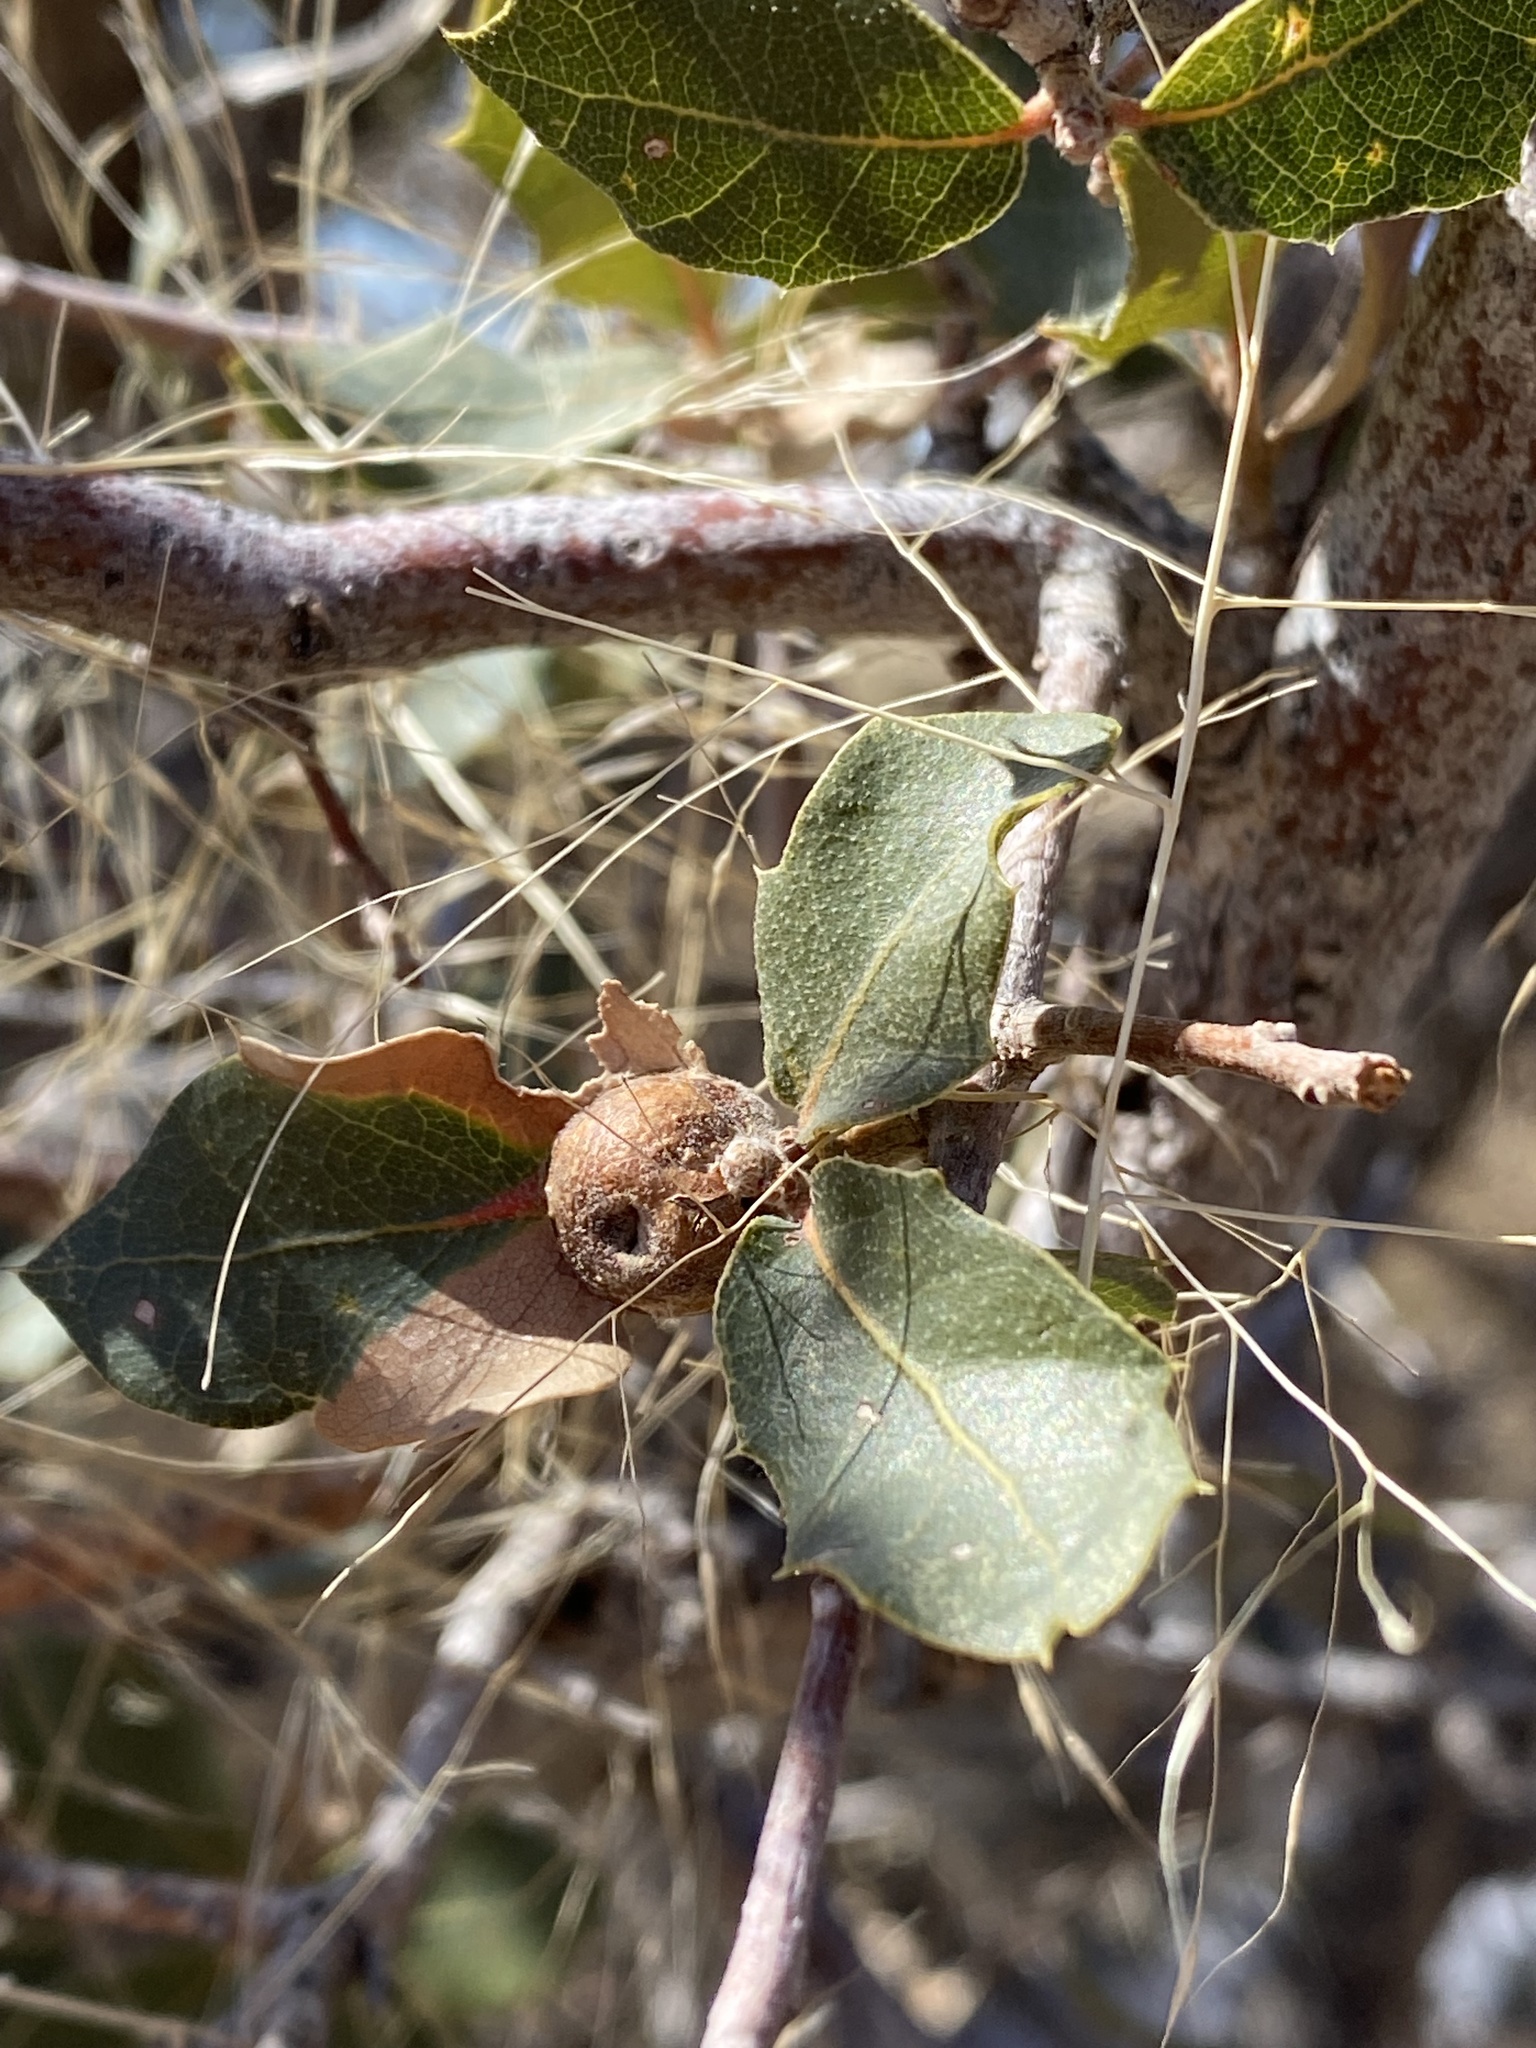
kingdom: Animalia
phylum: Arthropoda
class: Insecta
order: Hymenoptera
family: Cynipidae
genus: Andricus
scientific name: Andricus
